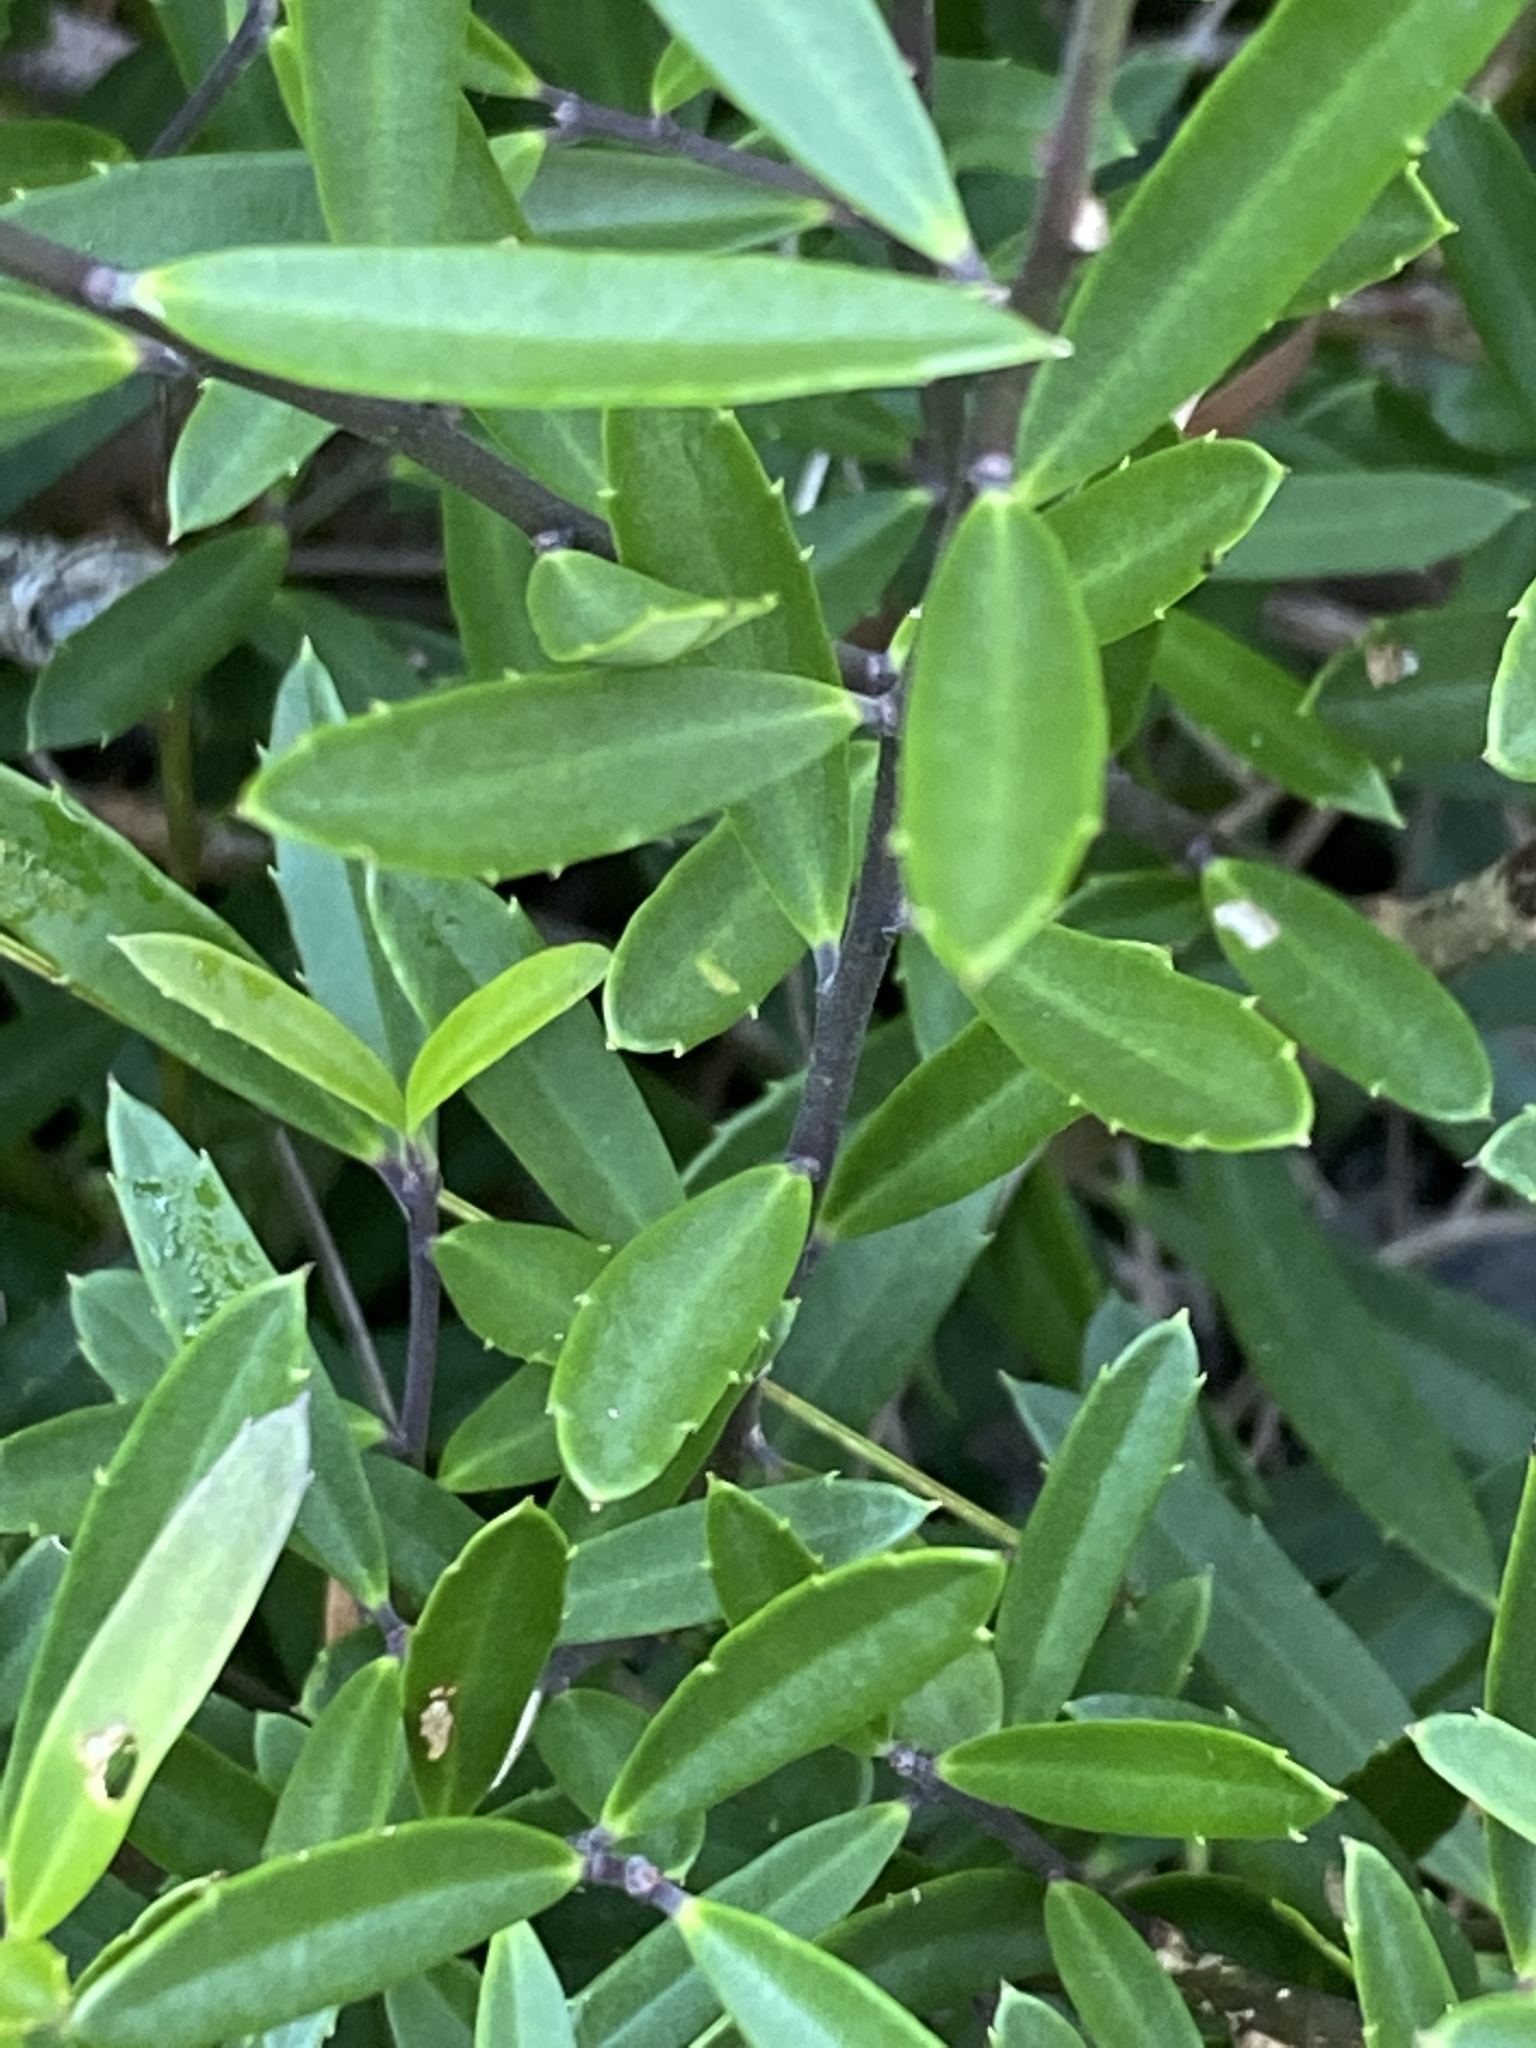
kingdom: Plantae
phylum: Tracheophyta
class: Magnoliopsida
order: Aquifoliales
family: Aquifoliaceae
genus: Ilex
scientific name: Ilex myrtifolia
